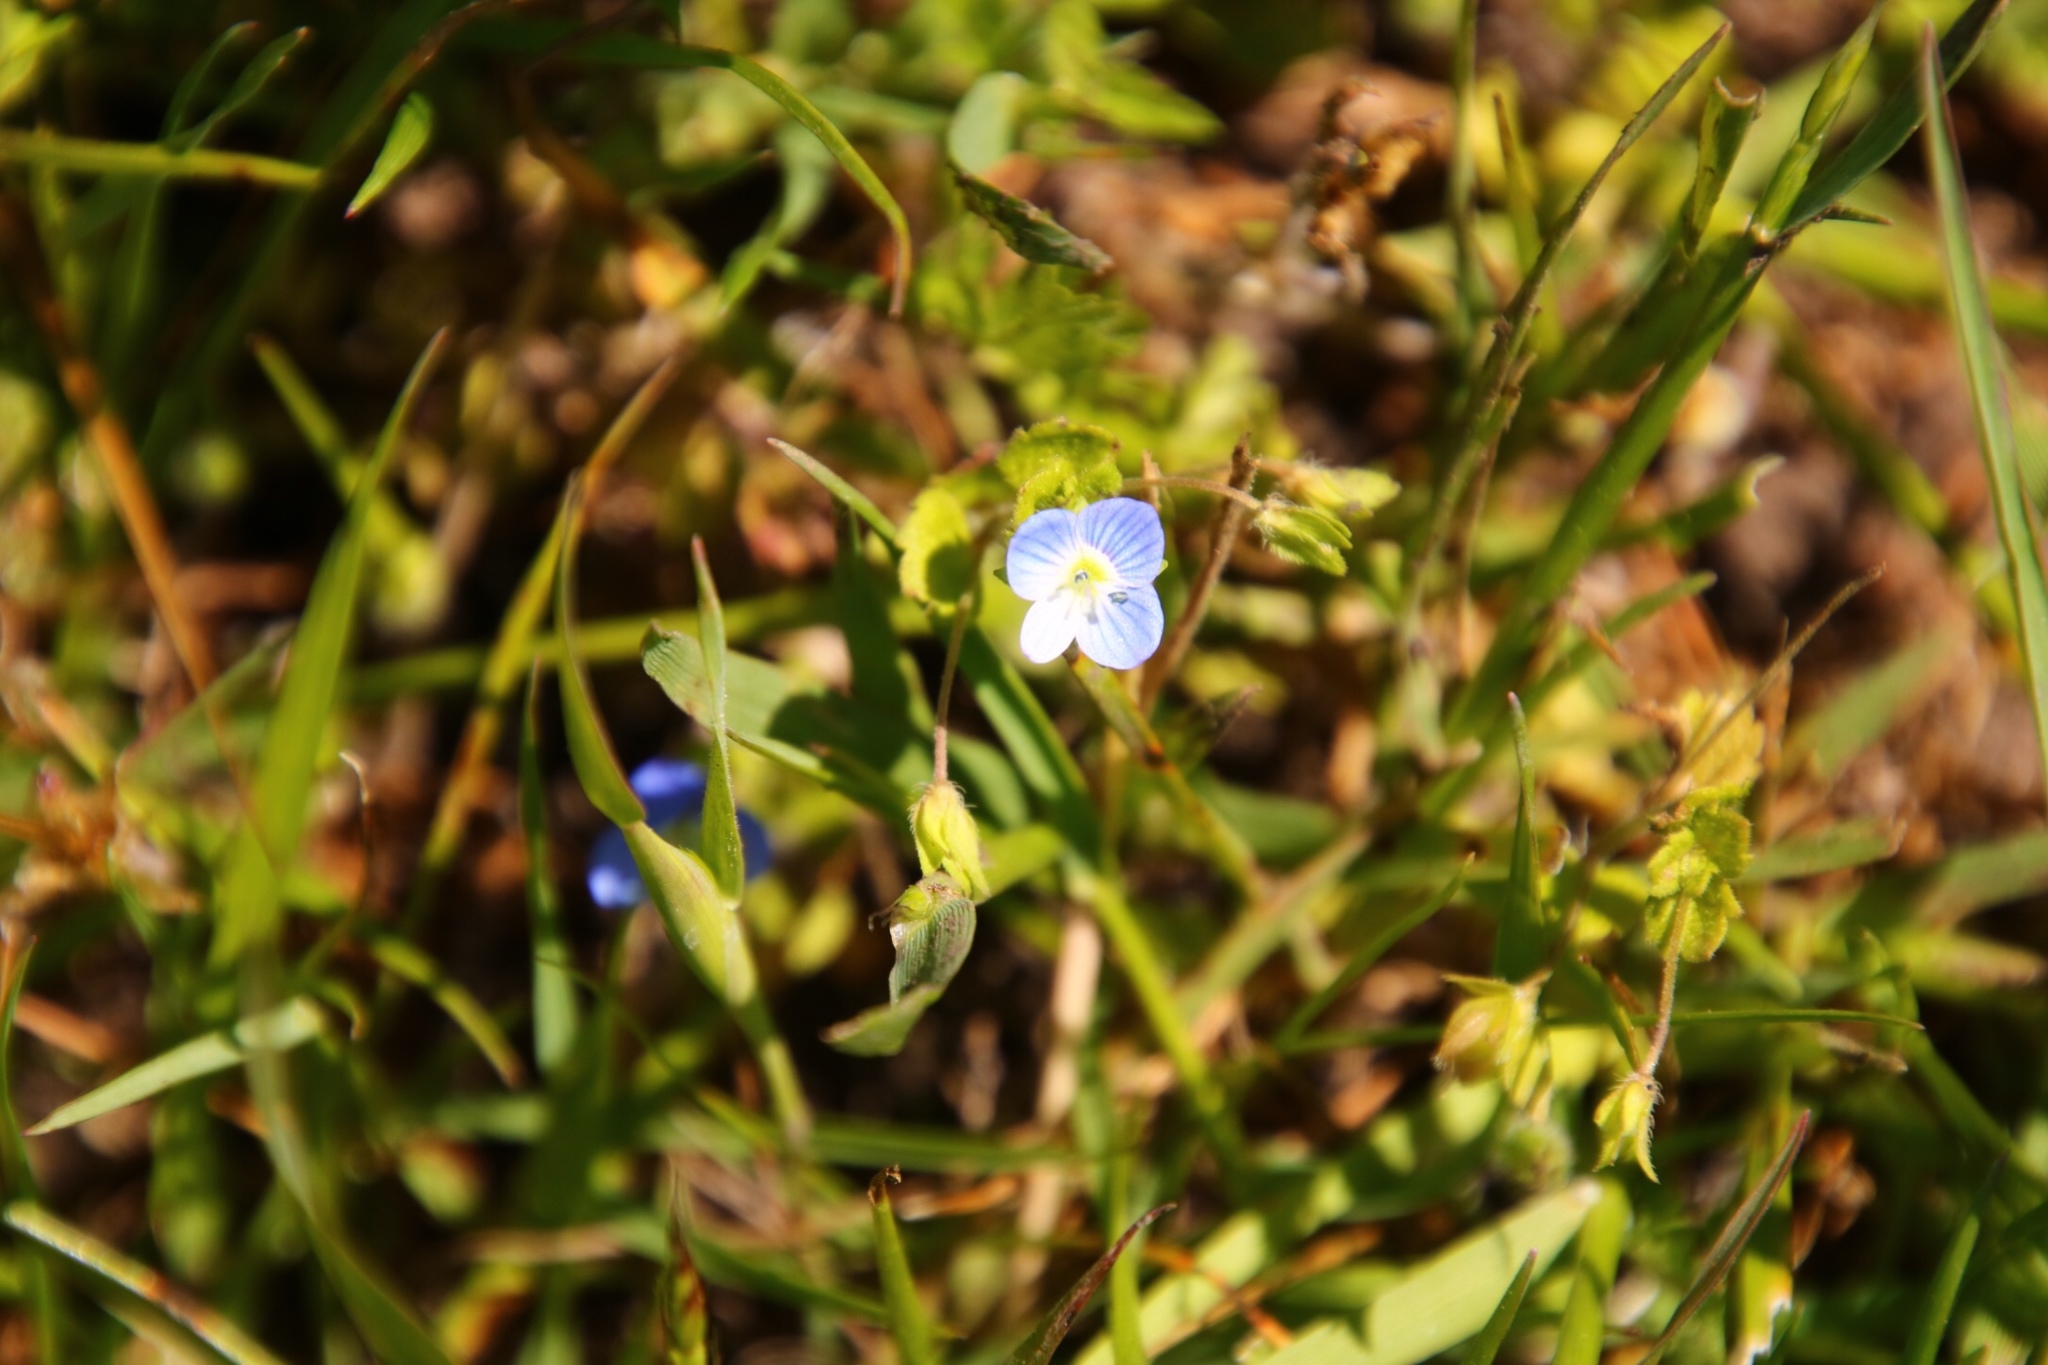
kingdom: Plantae
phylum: Tracheophyta
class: Magnoliopsida
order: Lamiales
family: Plantaginaceae
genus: Veronica
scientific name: Veronica persica
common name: Common field-speedwell
